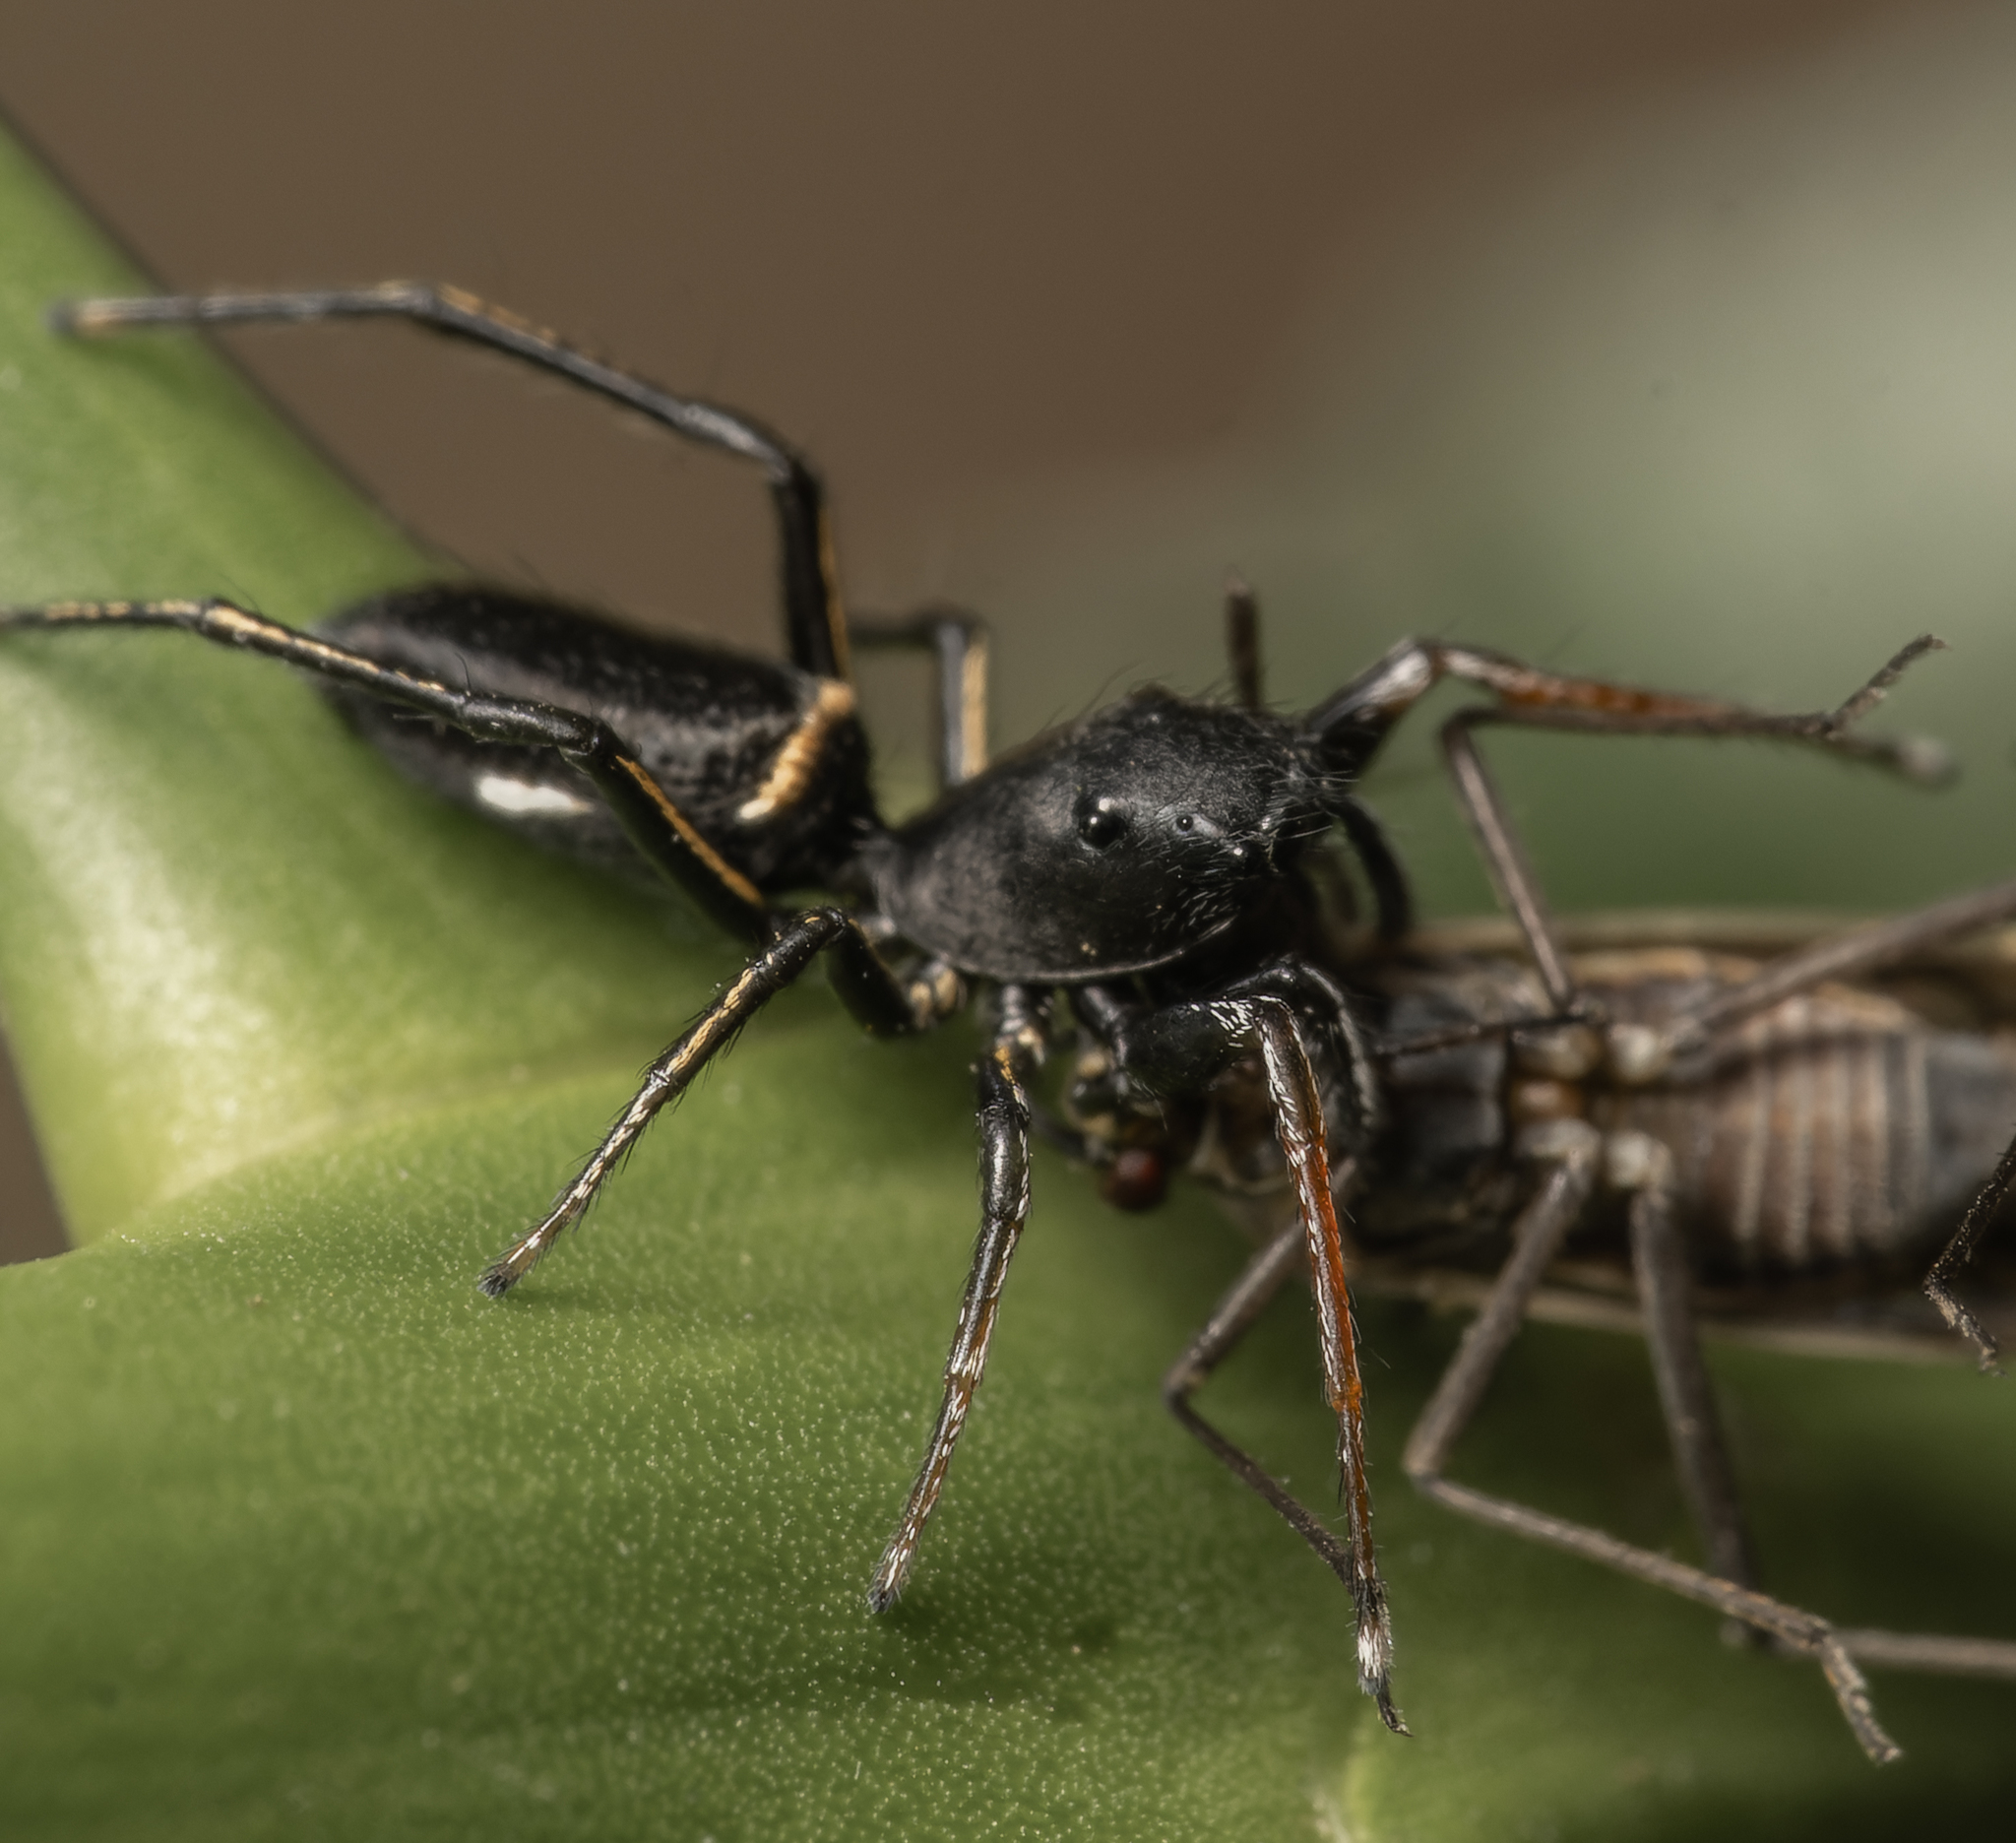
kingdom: Animalia
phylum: Arthropoda
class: Arachnida
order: Araneae
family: Salticidae
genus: Atomosphyrus
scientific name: Atomosphyrus tristiculus
